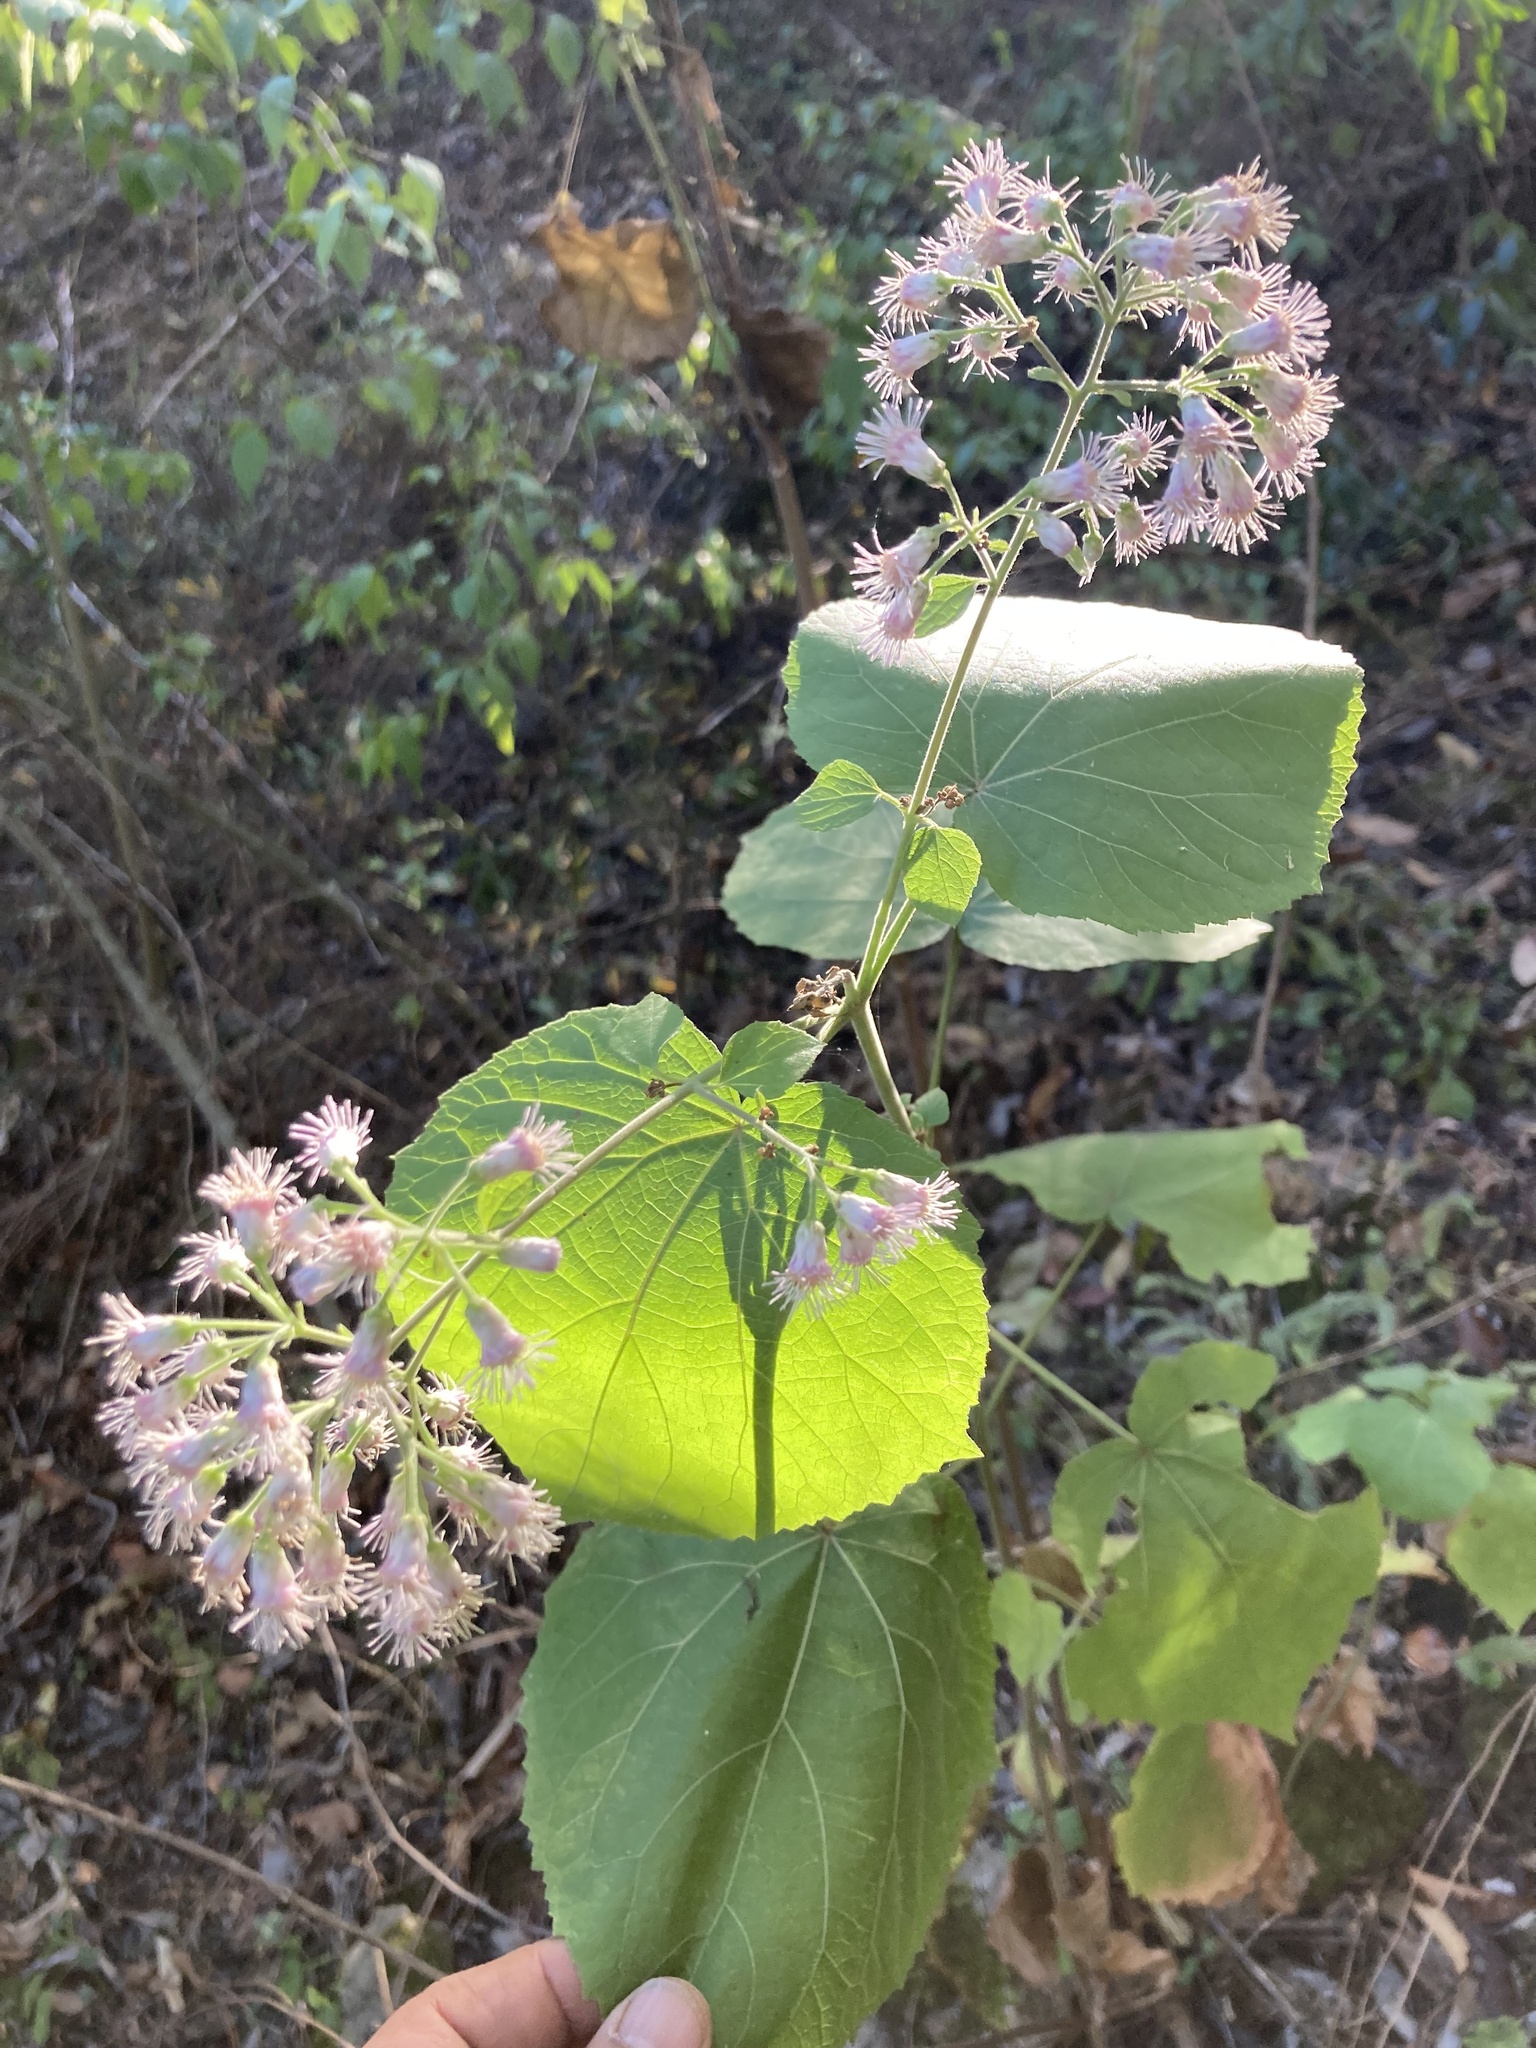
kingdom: Plantae
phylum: Tracheophyta
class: Magnoliopsida
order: Asterales
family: Asteraceae
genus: Peteravenia
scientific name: Peteravenia schultzii
